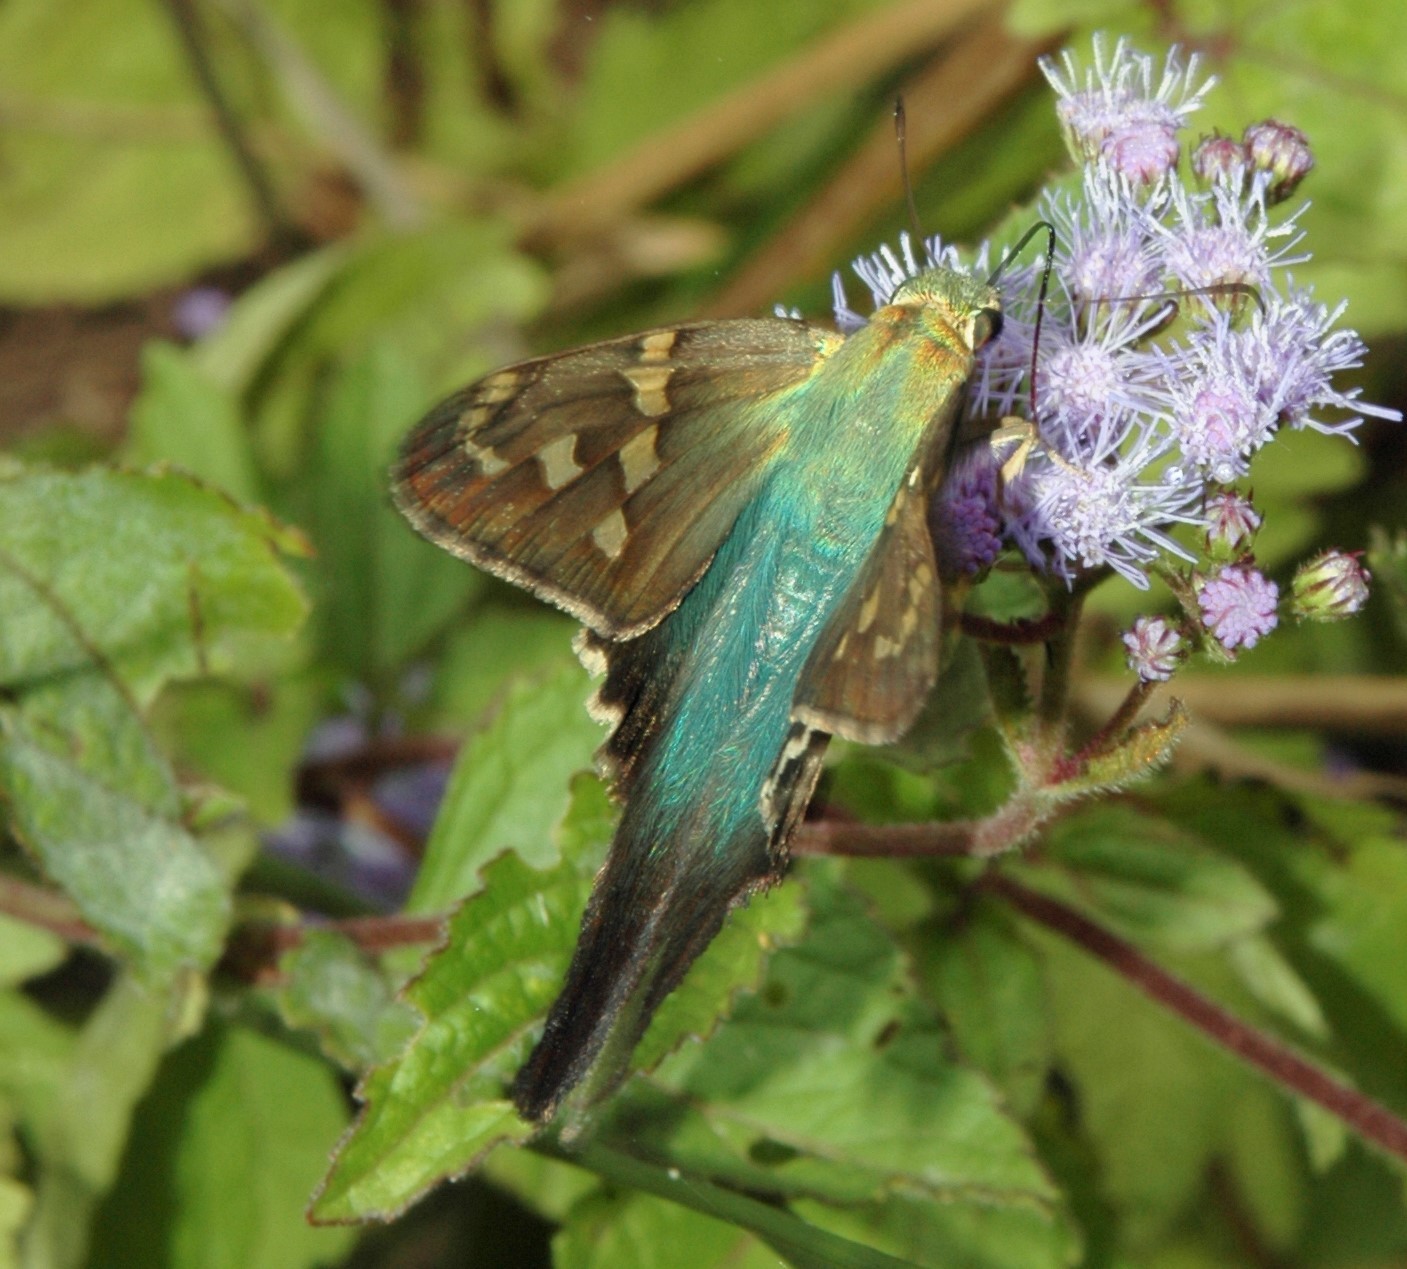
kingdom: Animalia
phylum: Arthropoda
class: Insecta
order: Lepidoptera
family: Hesperiidae
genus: Urbanus
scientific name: Urbanus proteus
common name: Long-tailed skipper
